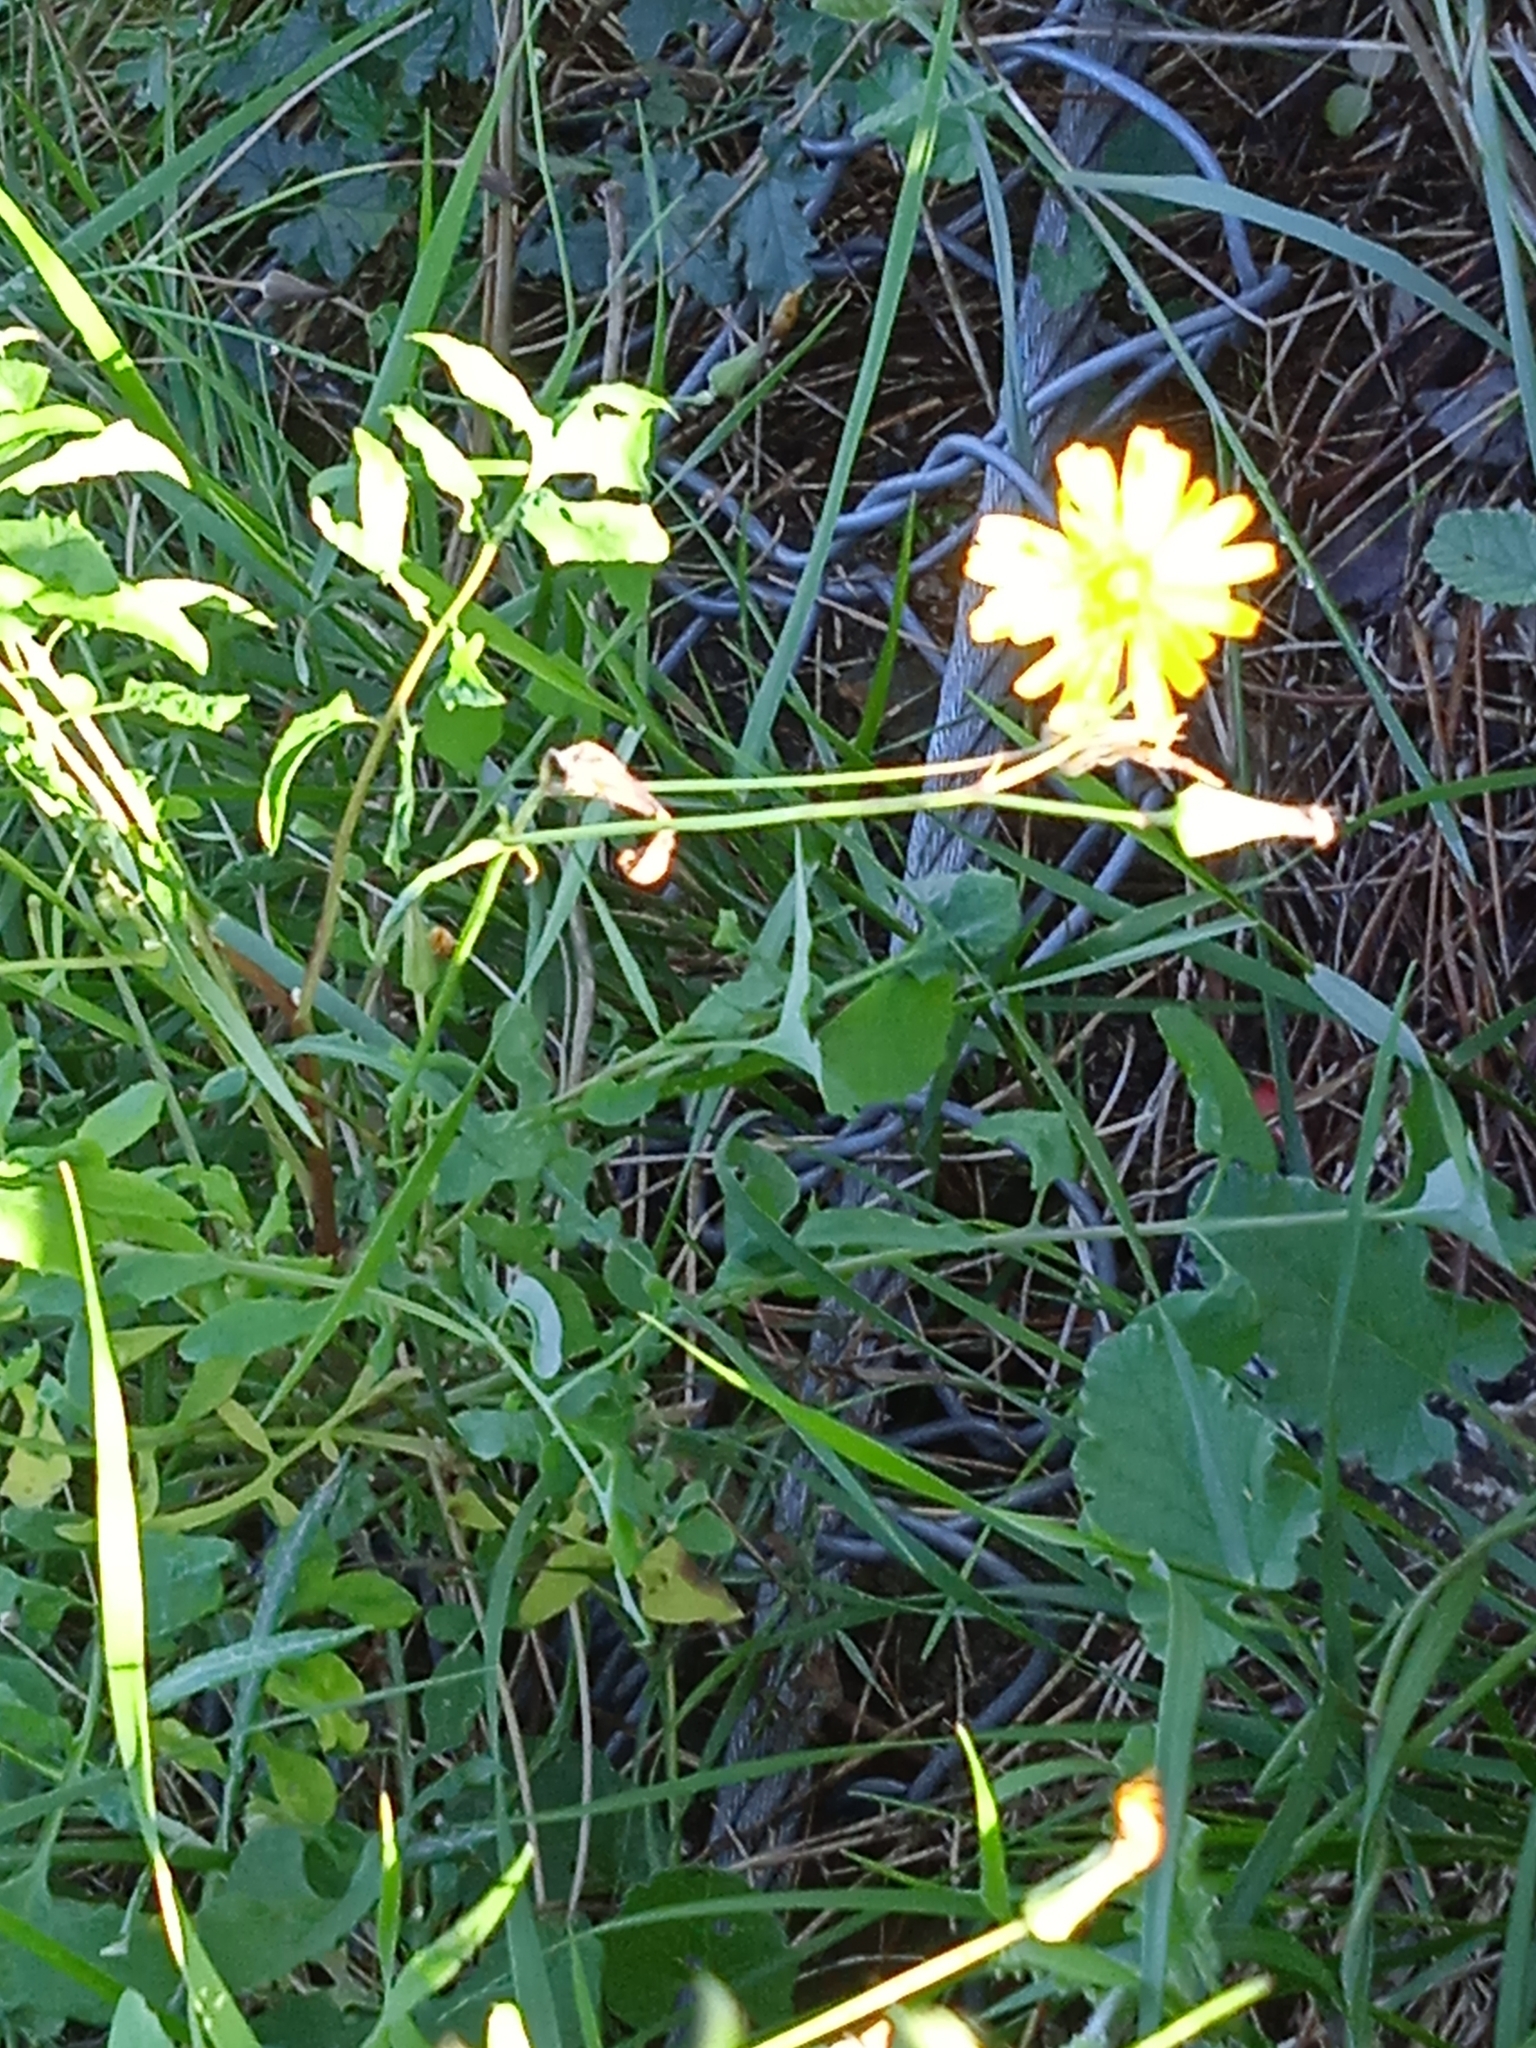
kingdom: Plantae
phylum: Tracheophyta
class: Magnoliopsida
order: Asterales
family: Asteraceae
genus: Sonchus
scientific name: Sonchus tenerrimus
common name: Clammy sowthistle
